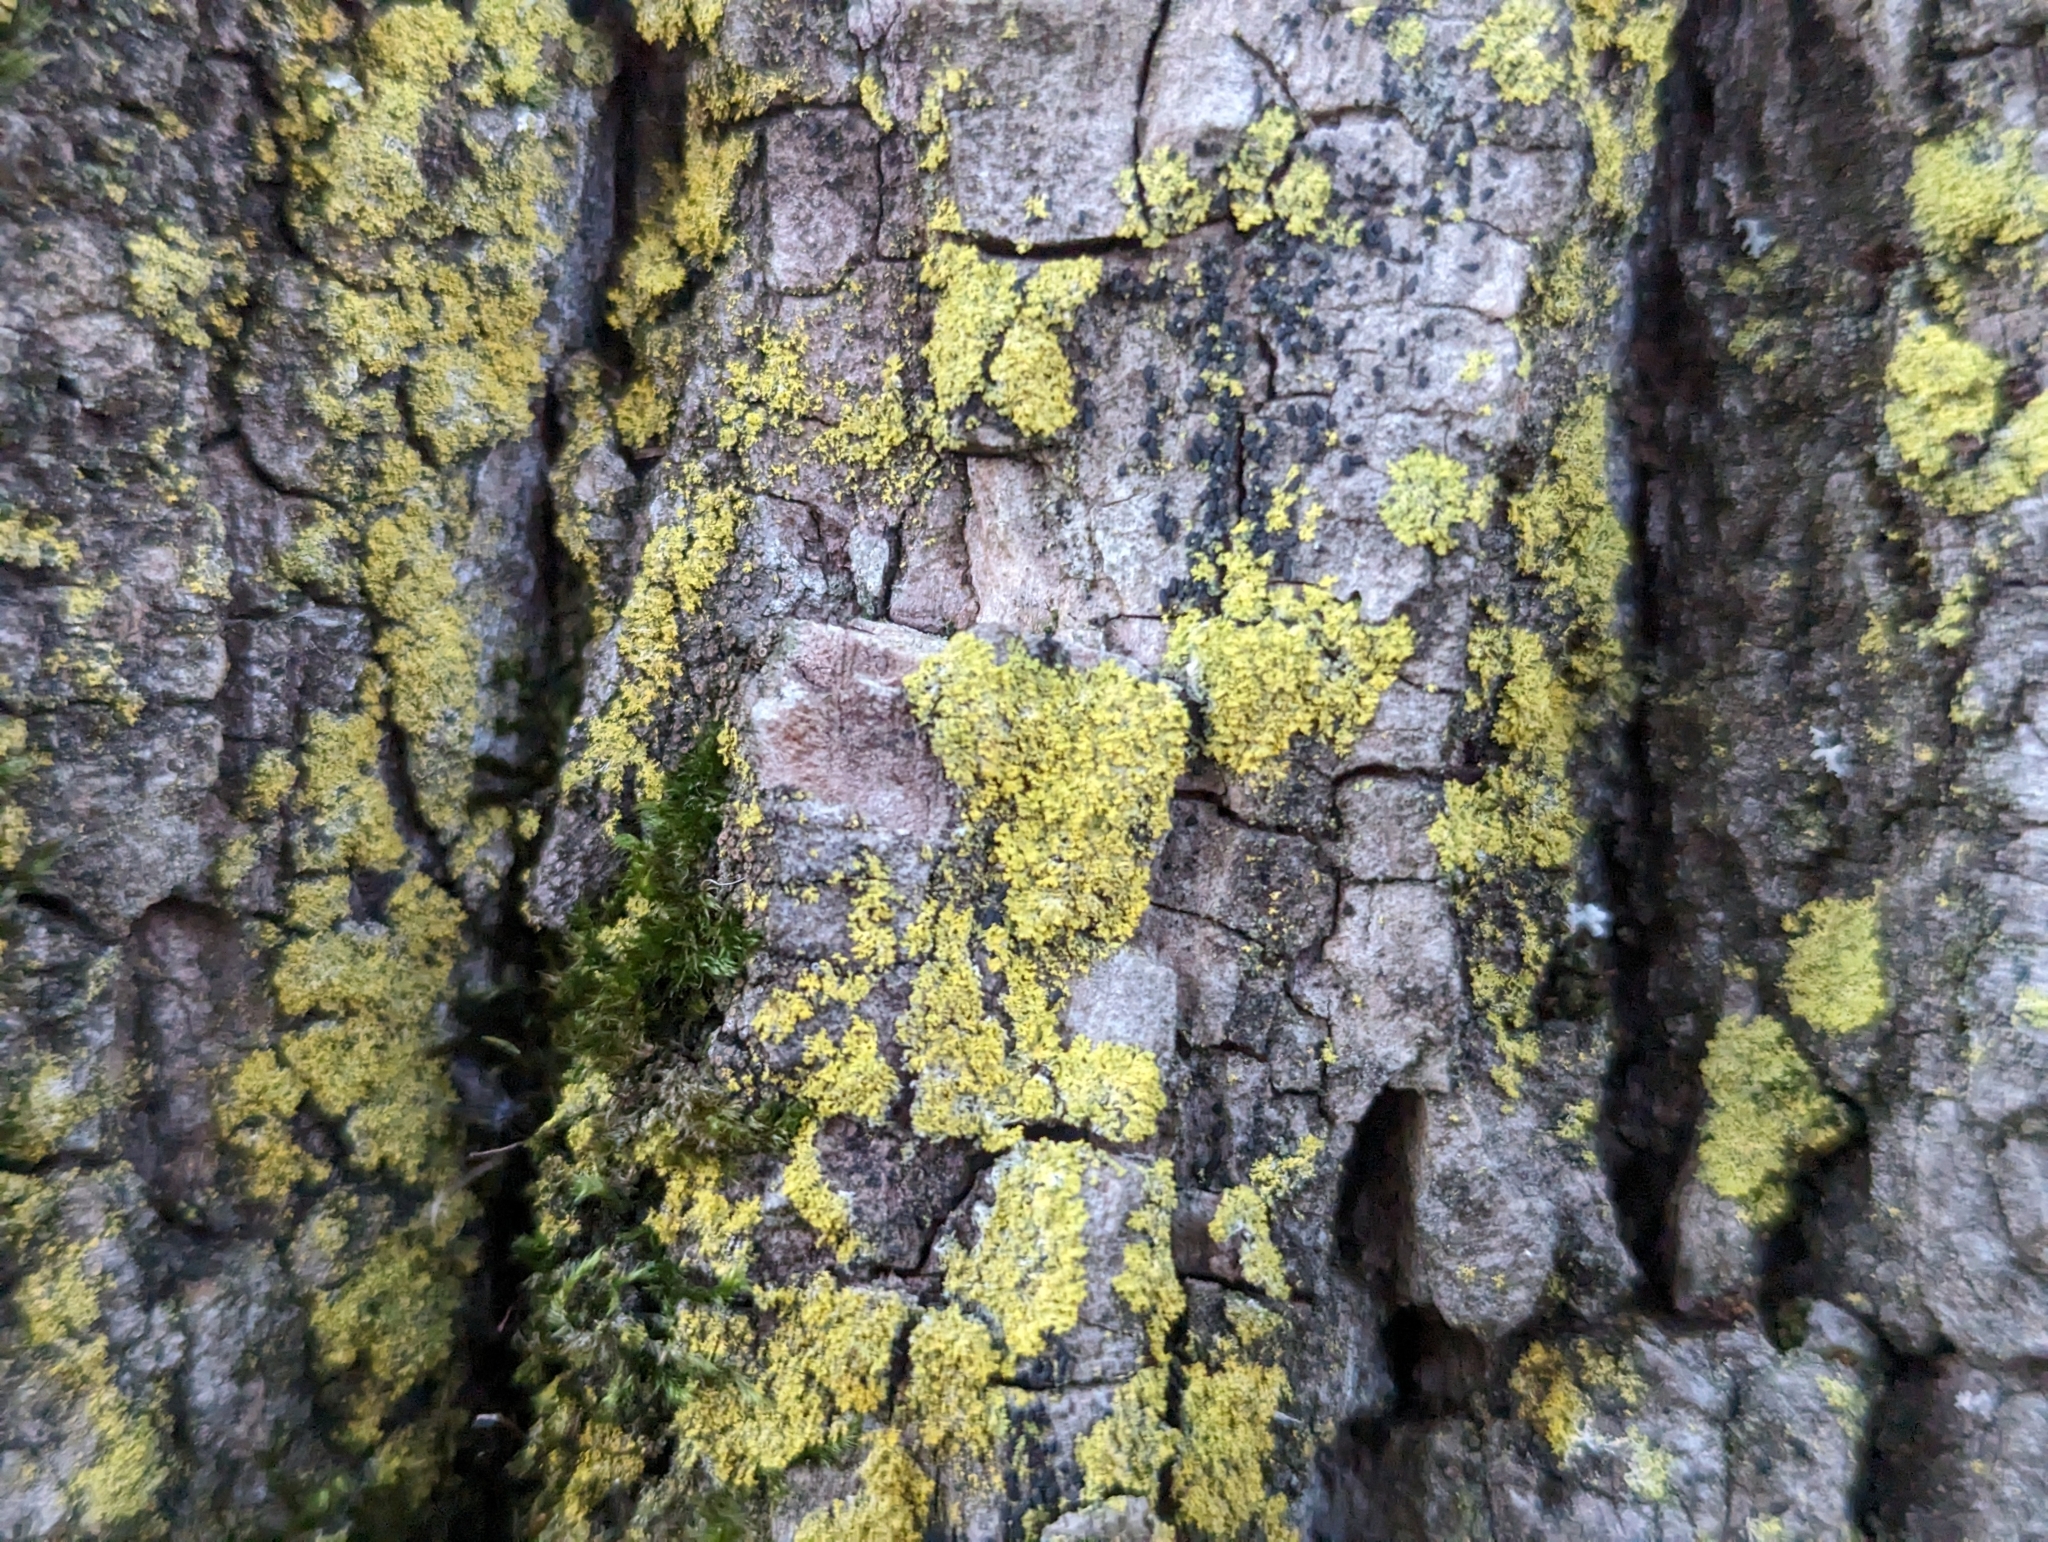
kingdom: Fungi
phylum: Ascomycota
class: Candelariomycetes
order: Candelariales
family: Candelariaceae
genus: Candelaria
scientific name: Candelaria concolor
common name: Candleflame lichen
